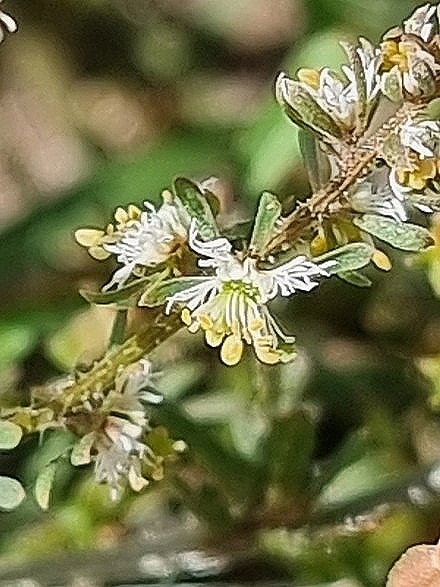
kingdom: Plantae
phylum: Tracheophyta
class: Magnoliopsida
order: Brassicales
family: Resedaceae
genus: Reseda
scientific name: Reseda media
